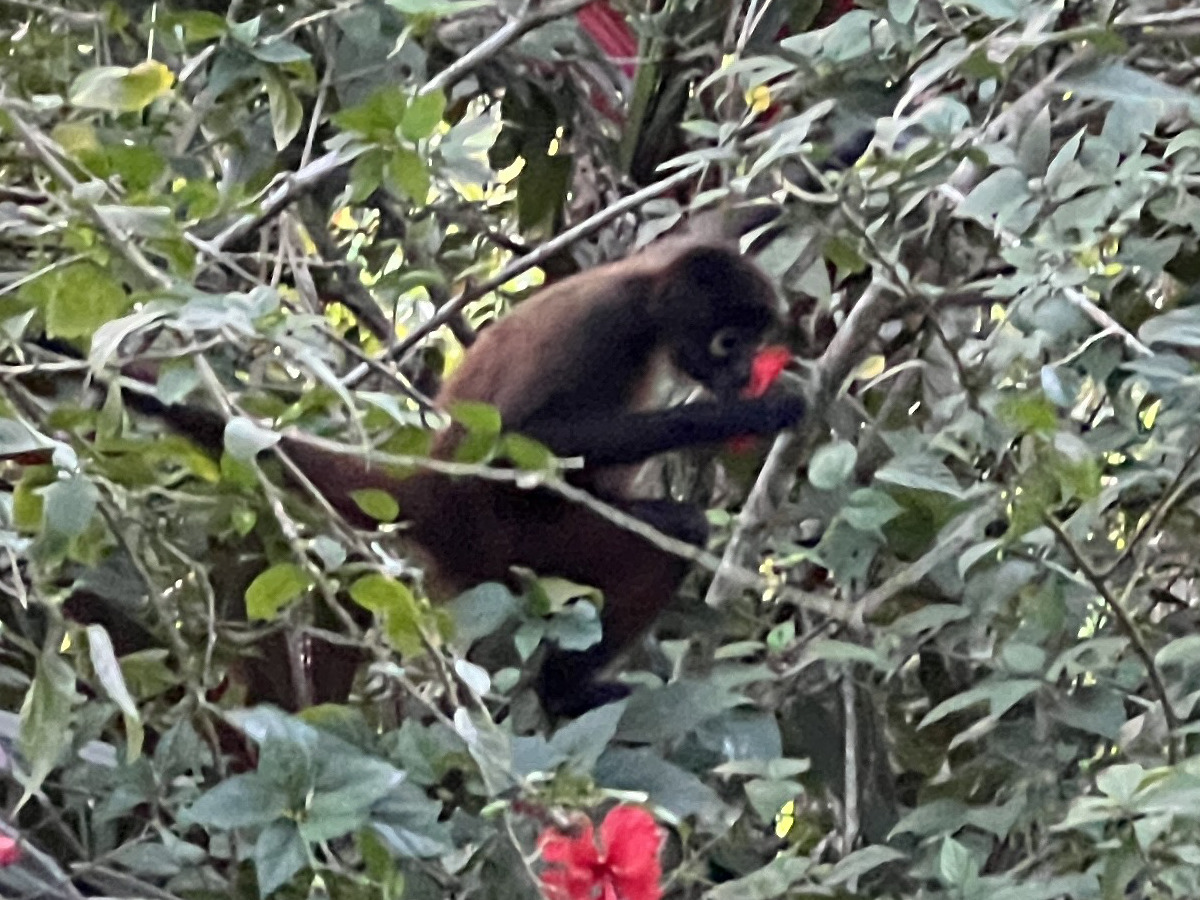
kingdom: Animalia
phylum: Chordata
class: Mammalia
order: Primates
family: Atelidae
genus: Ateles
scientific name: Ateles geoffroyi
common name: Black-handed spider monkey
